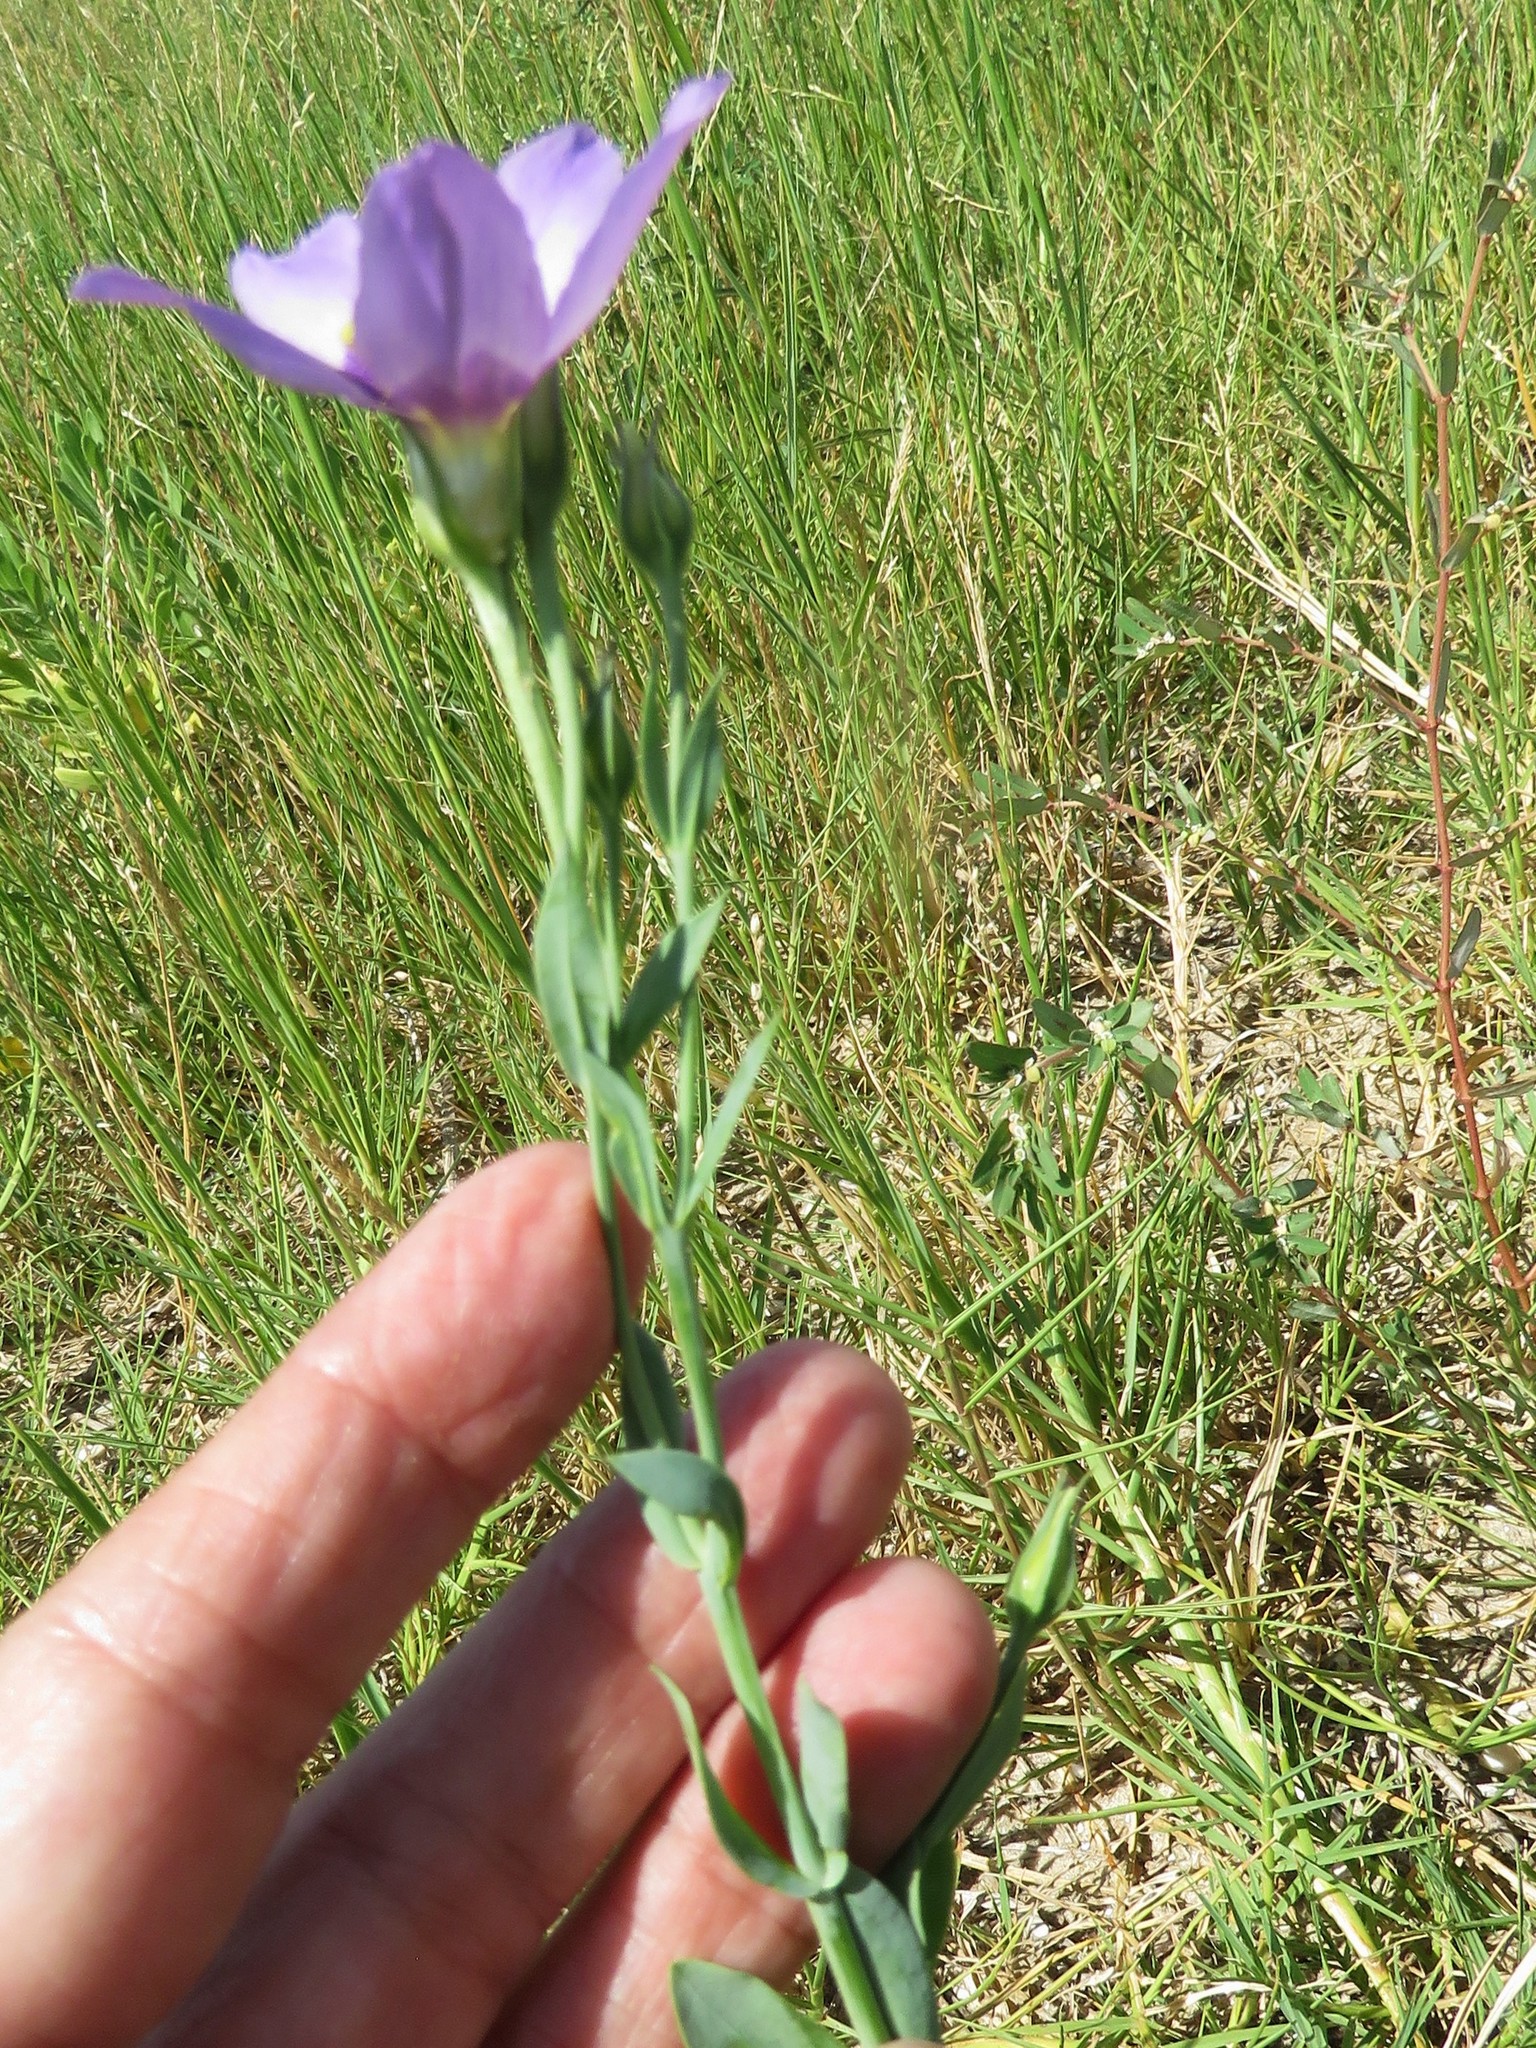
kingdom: Plantae
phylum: Tracheophyta
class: Magnoliopsida
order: Gentianales
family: Gentianaceae
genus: Eustoma
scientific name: Eustoma exaltatum
